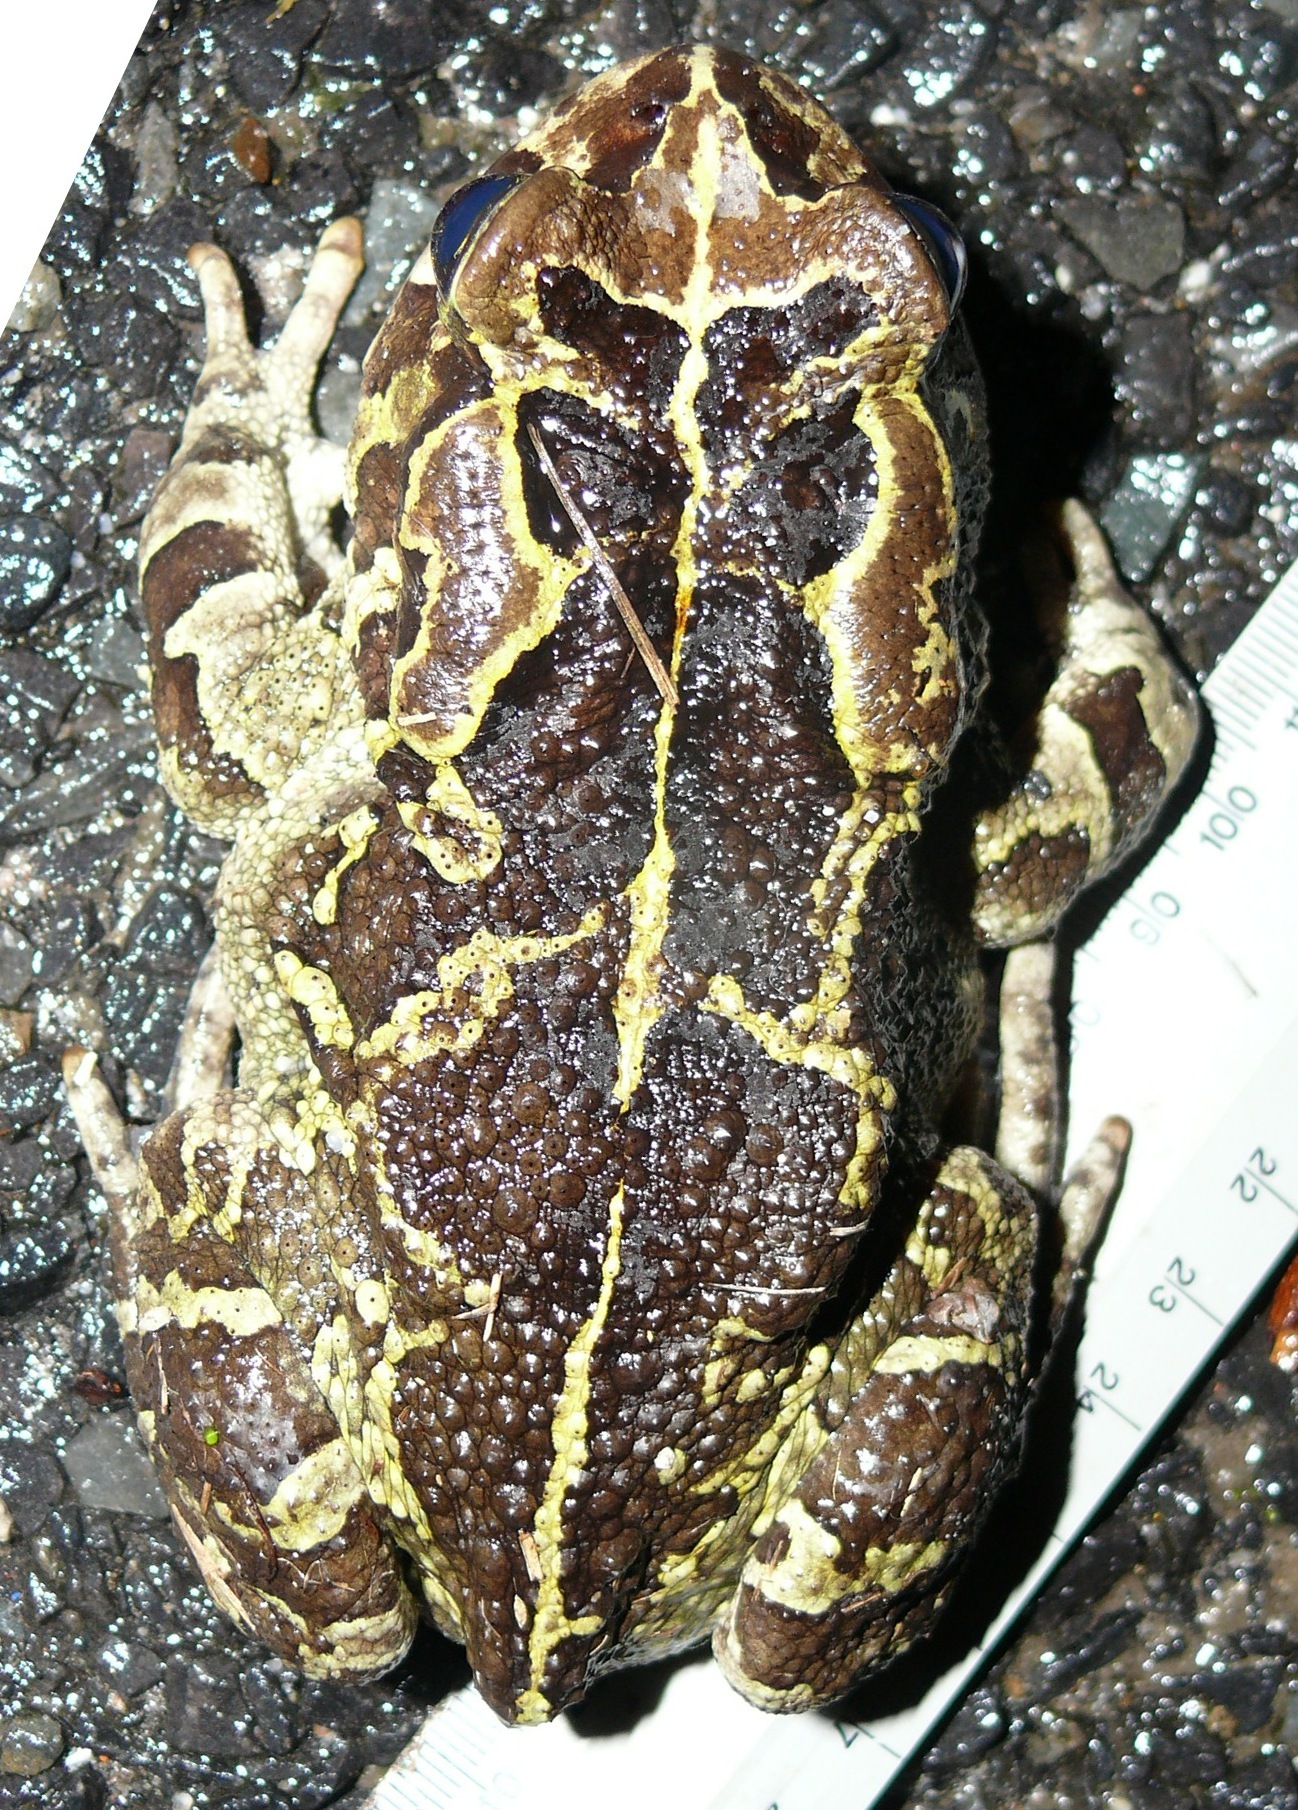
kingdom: Animalia
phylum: Chordata
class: Amphibia
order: Anura
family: Bufonidae
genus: Sclerophrys
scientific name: Sclerophrys pantherina
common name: Panther toad
